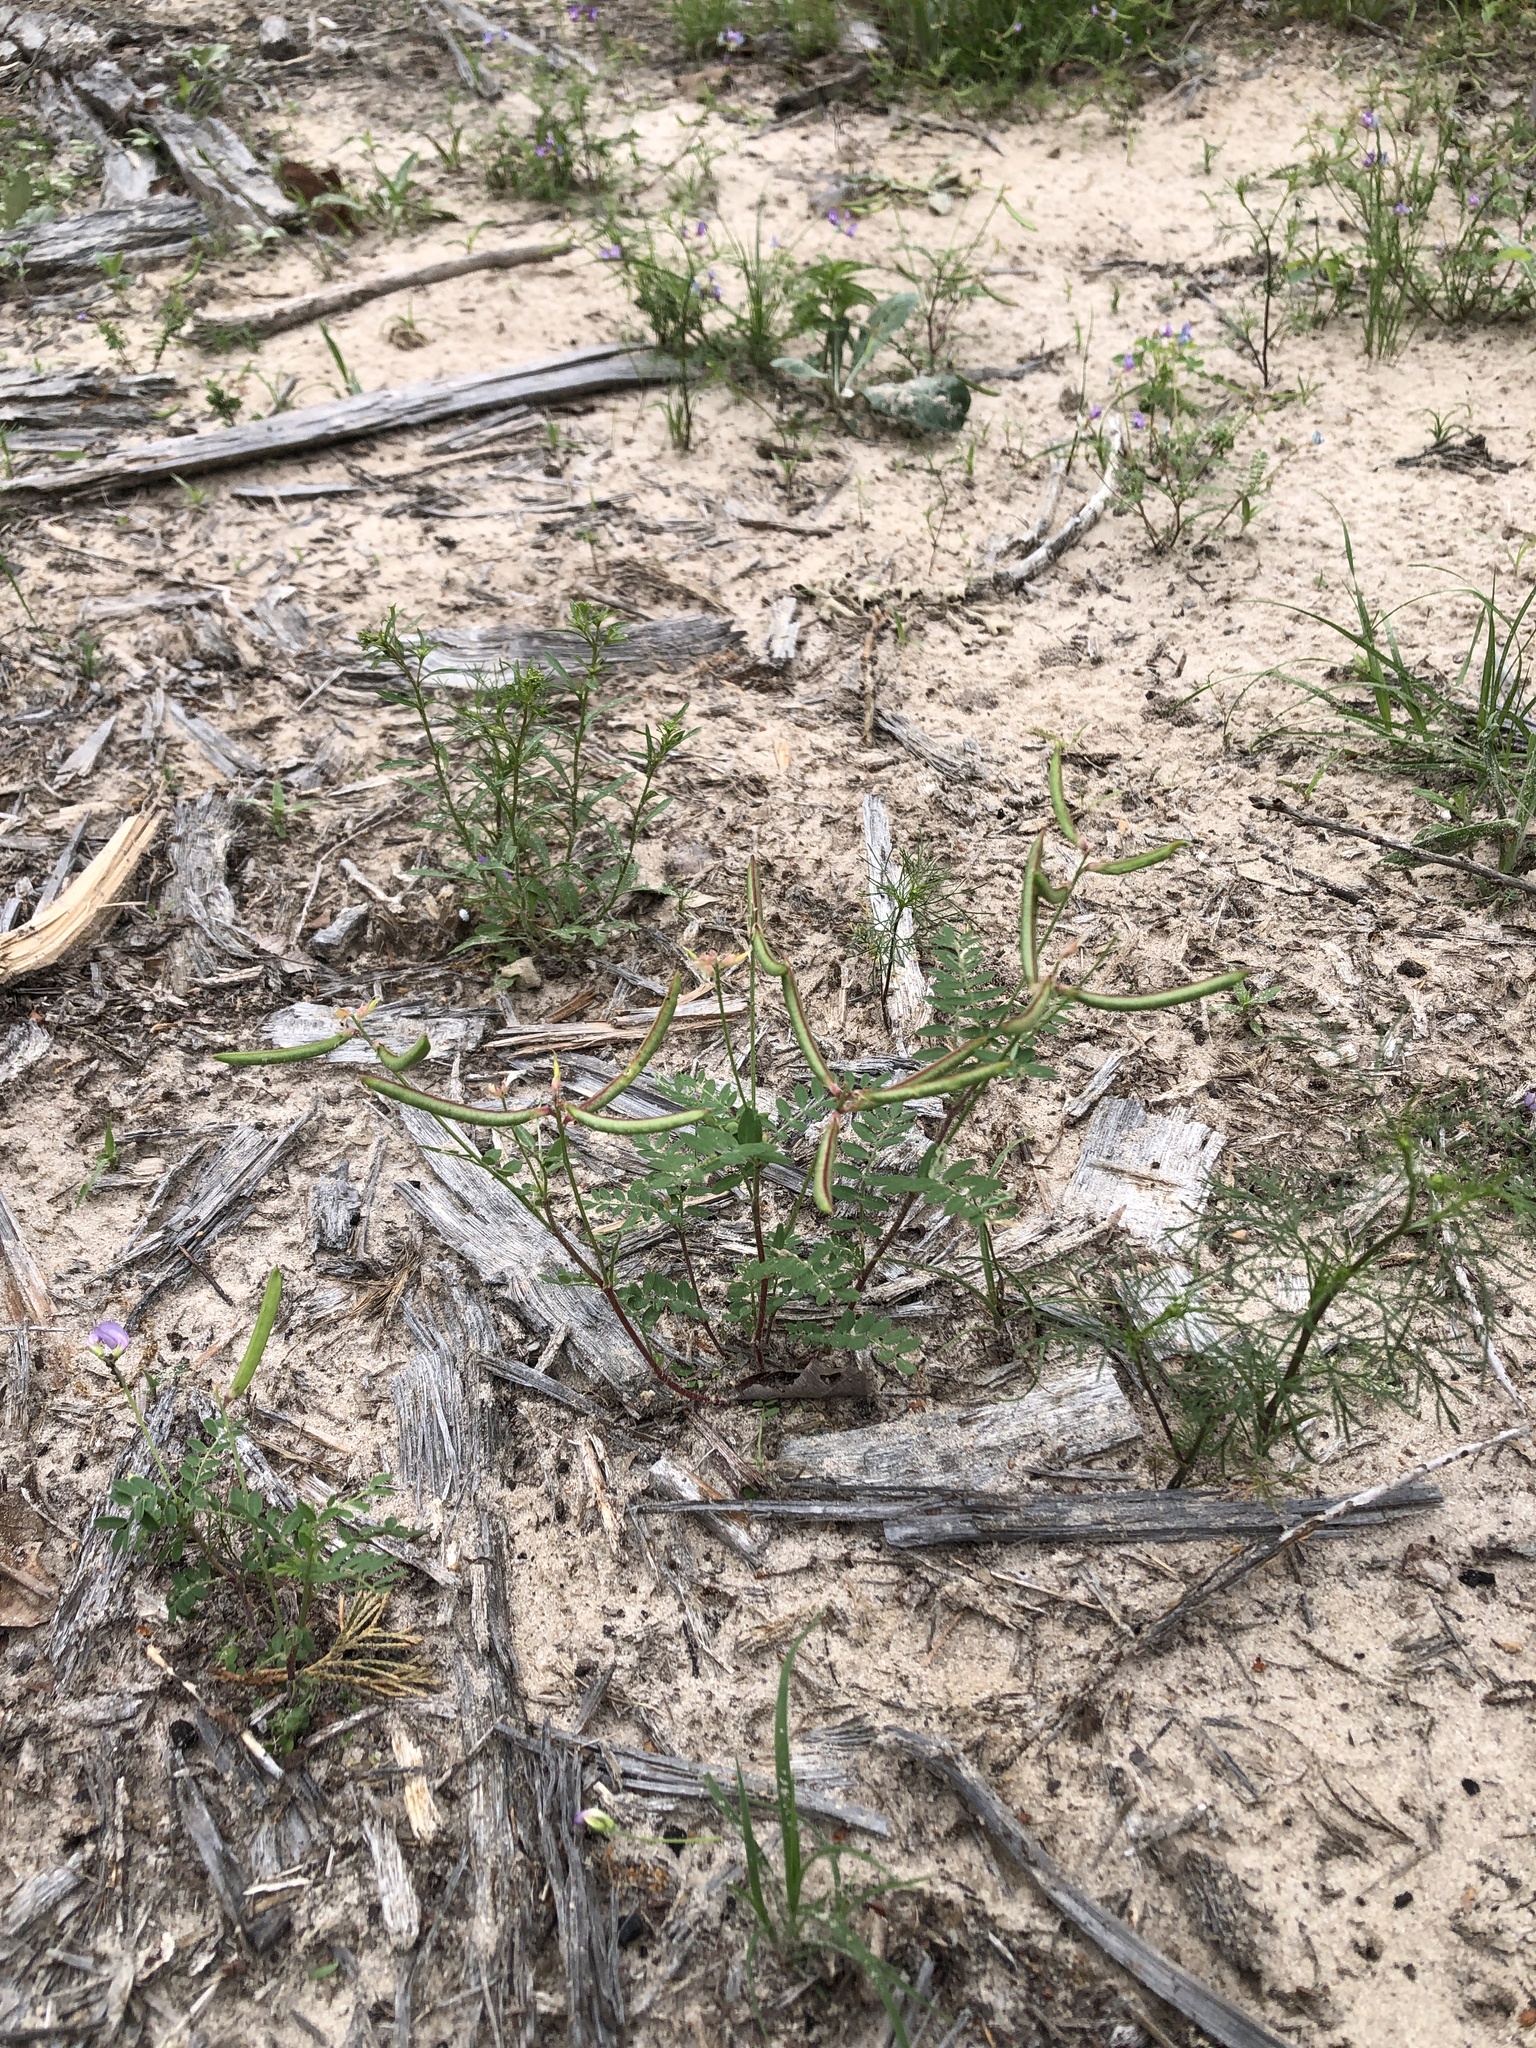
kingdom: Plantae
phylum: Tracheophyta
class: Magnoliopsida
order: Fabales
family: Fabaceae
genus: Astragalus
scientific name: Astragalus leptocarpus
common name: Bodkin milk-vetch
